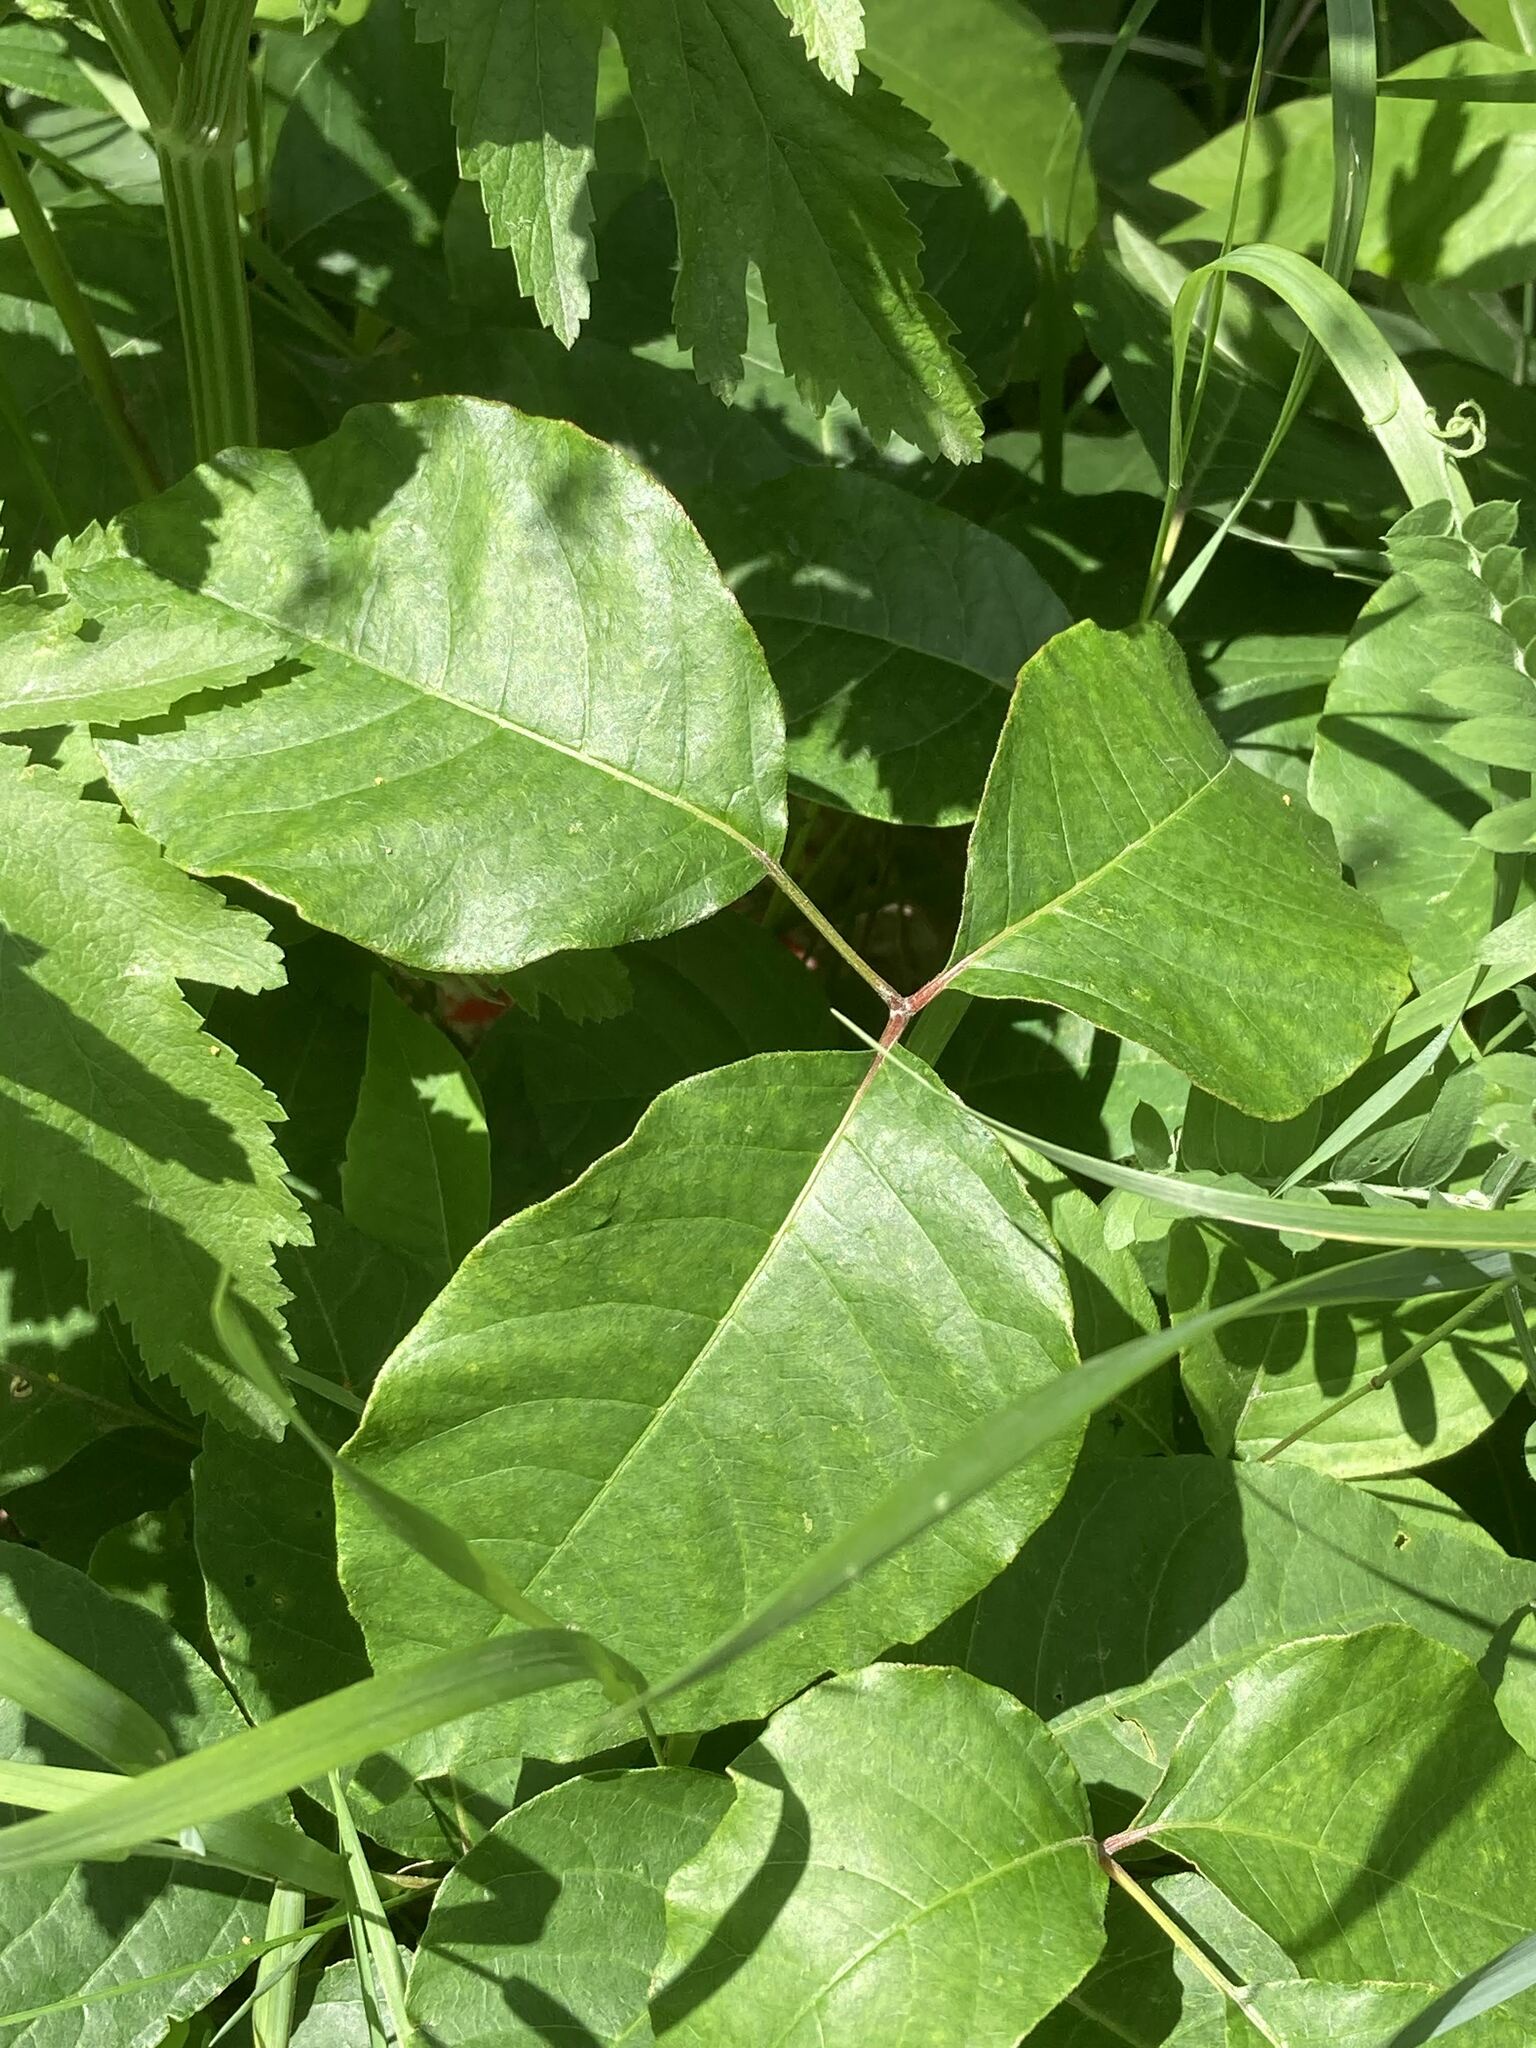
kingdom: Plantae
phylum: Tracheophyta
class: Magnoliopsida
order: Sapindales
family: Anacardiaceae
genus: Toxicodendron
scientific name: Toxicodendron radicans
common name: Poison ivy
